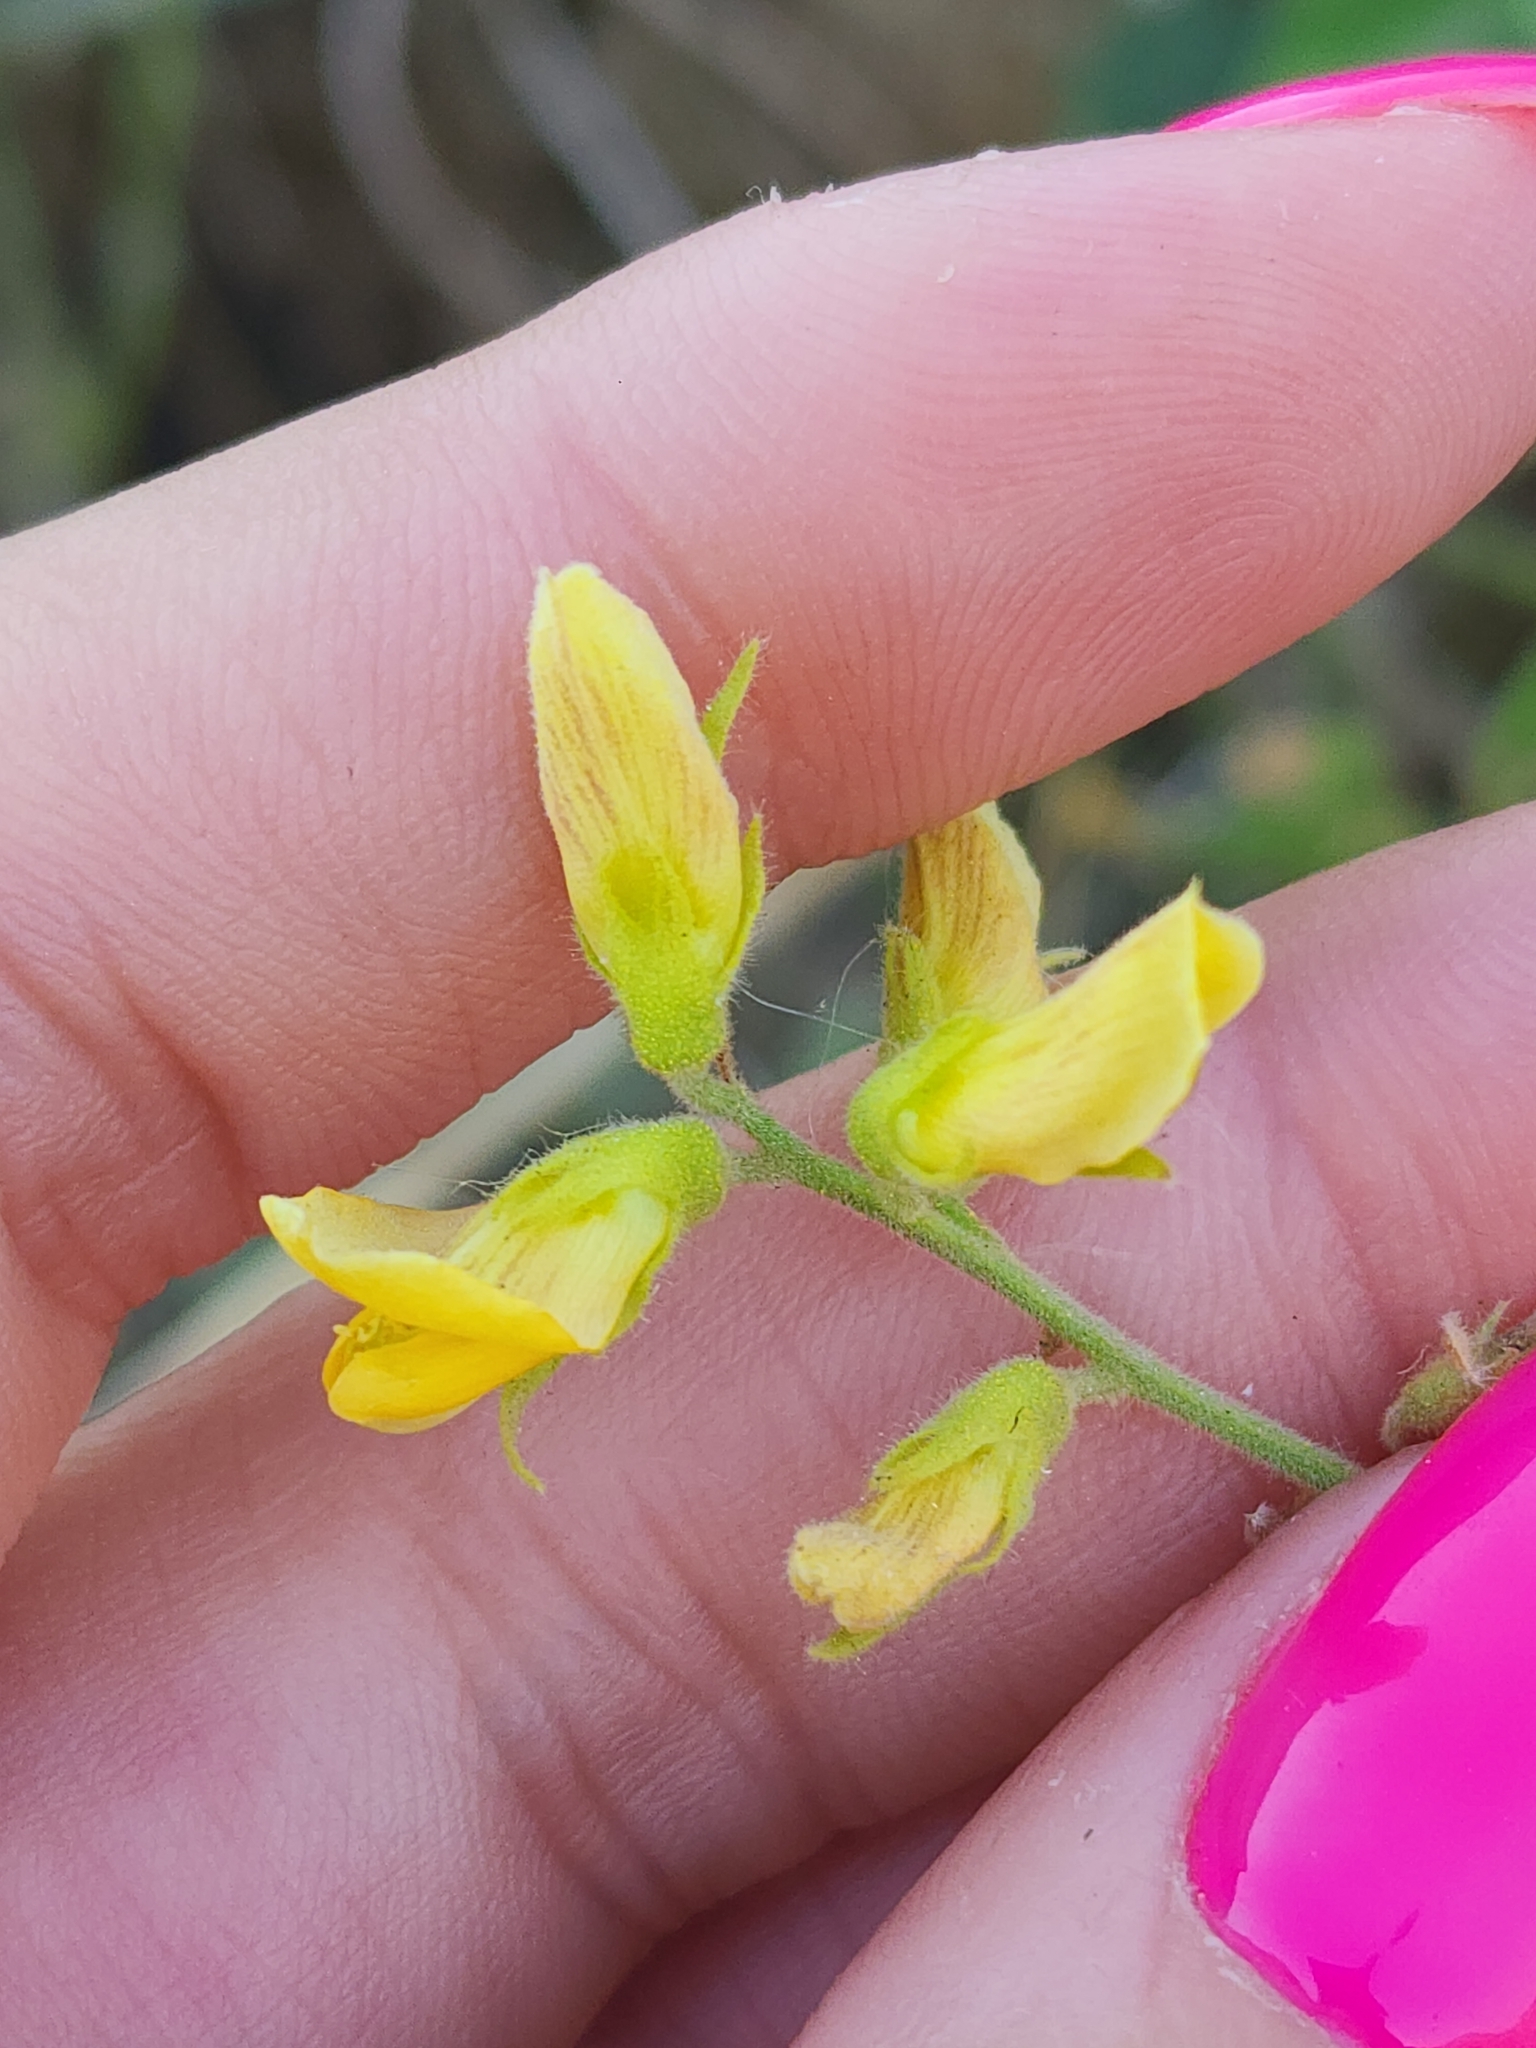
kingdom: Plantae
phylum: Tracheophyta
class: Magnoliopsida
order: Fabales
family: Fabaceae
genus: Rhynchosia
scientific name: Rhynchosia edulis
